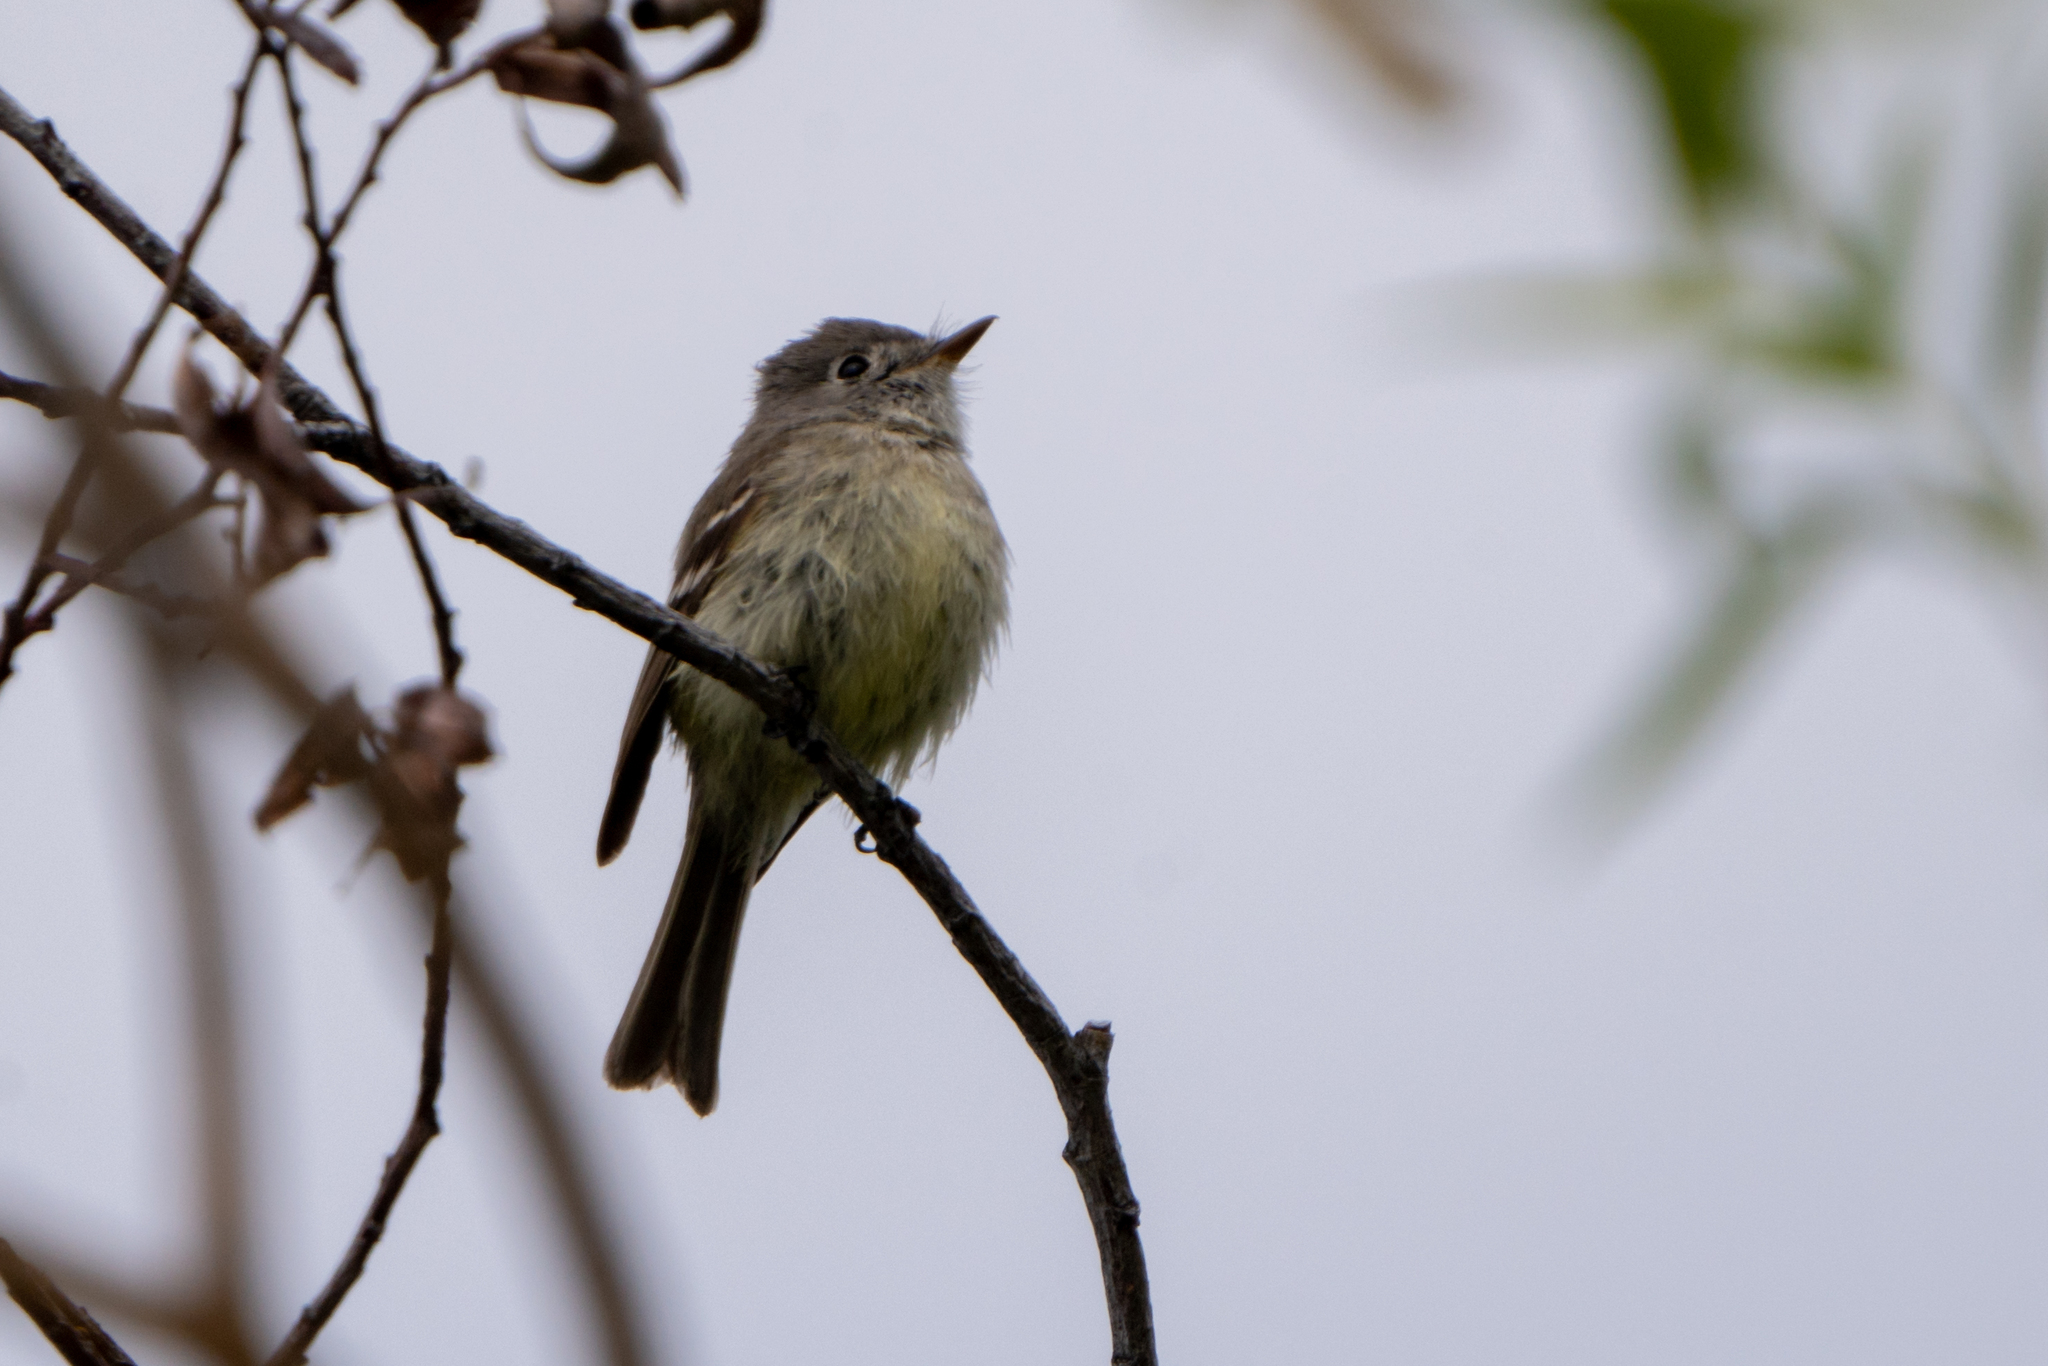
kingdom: Animalia
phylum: Chordata
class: Aves
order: Passeriformes
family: Tyrannidae
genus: Empidonax
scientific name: Empidonax hammondii
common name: Hammond's flycatcher
